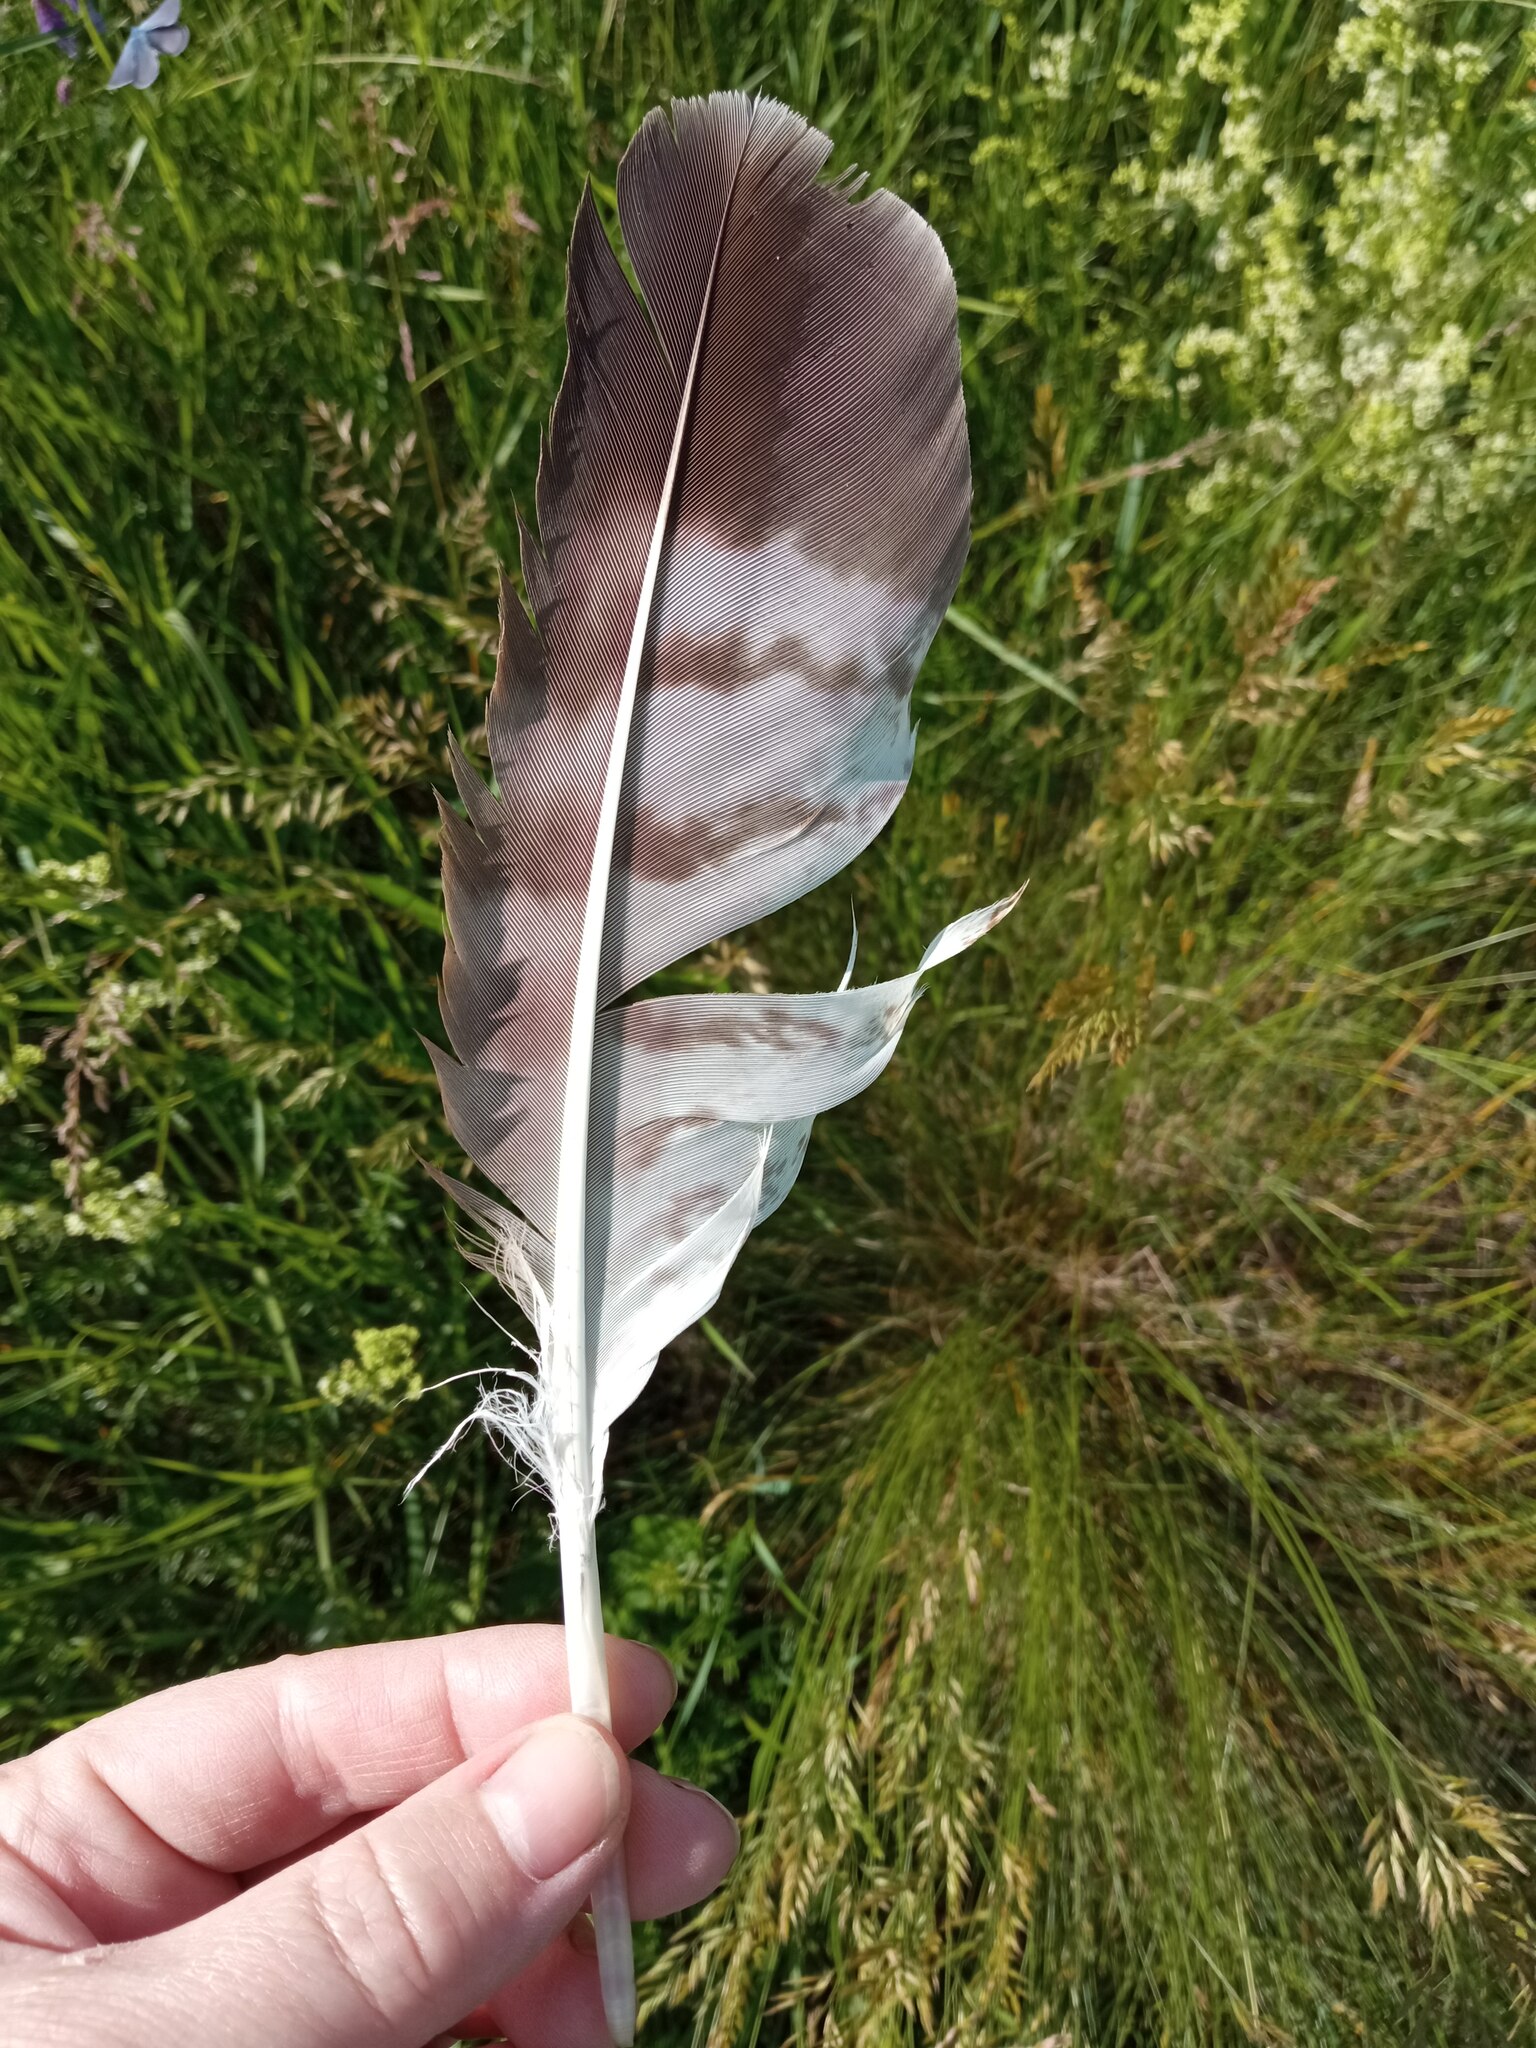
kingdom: Animalia
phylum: Chordata
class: Aves
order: Accipitriformes
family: Accipitridae
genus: Buteo
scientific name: Buteo buteo
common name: Common buzzard
